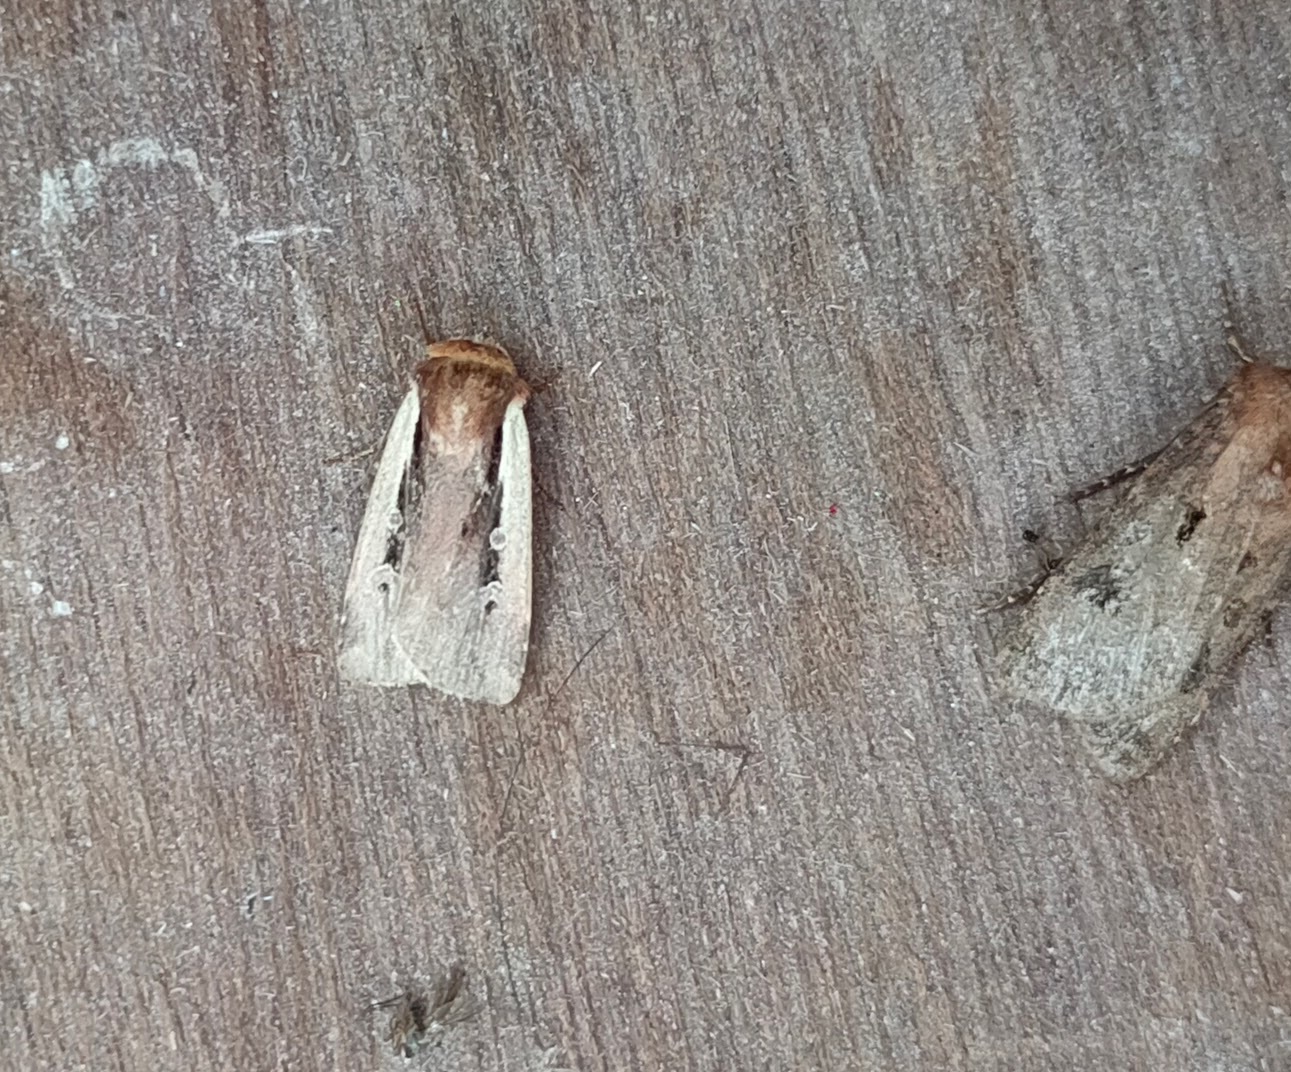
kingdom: Animalia
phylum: Arthropoda
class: Insecta
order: Lepidoptera
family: Noctuidae
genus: Ochropleura
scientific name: Ochropleura plecta
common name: Flame shoulder
